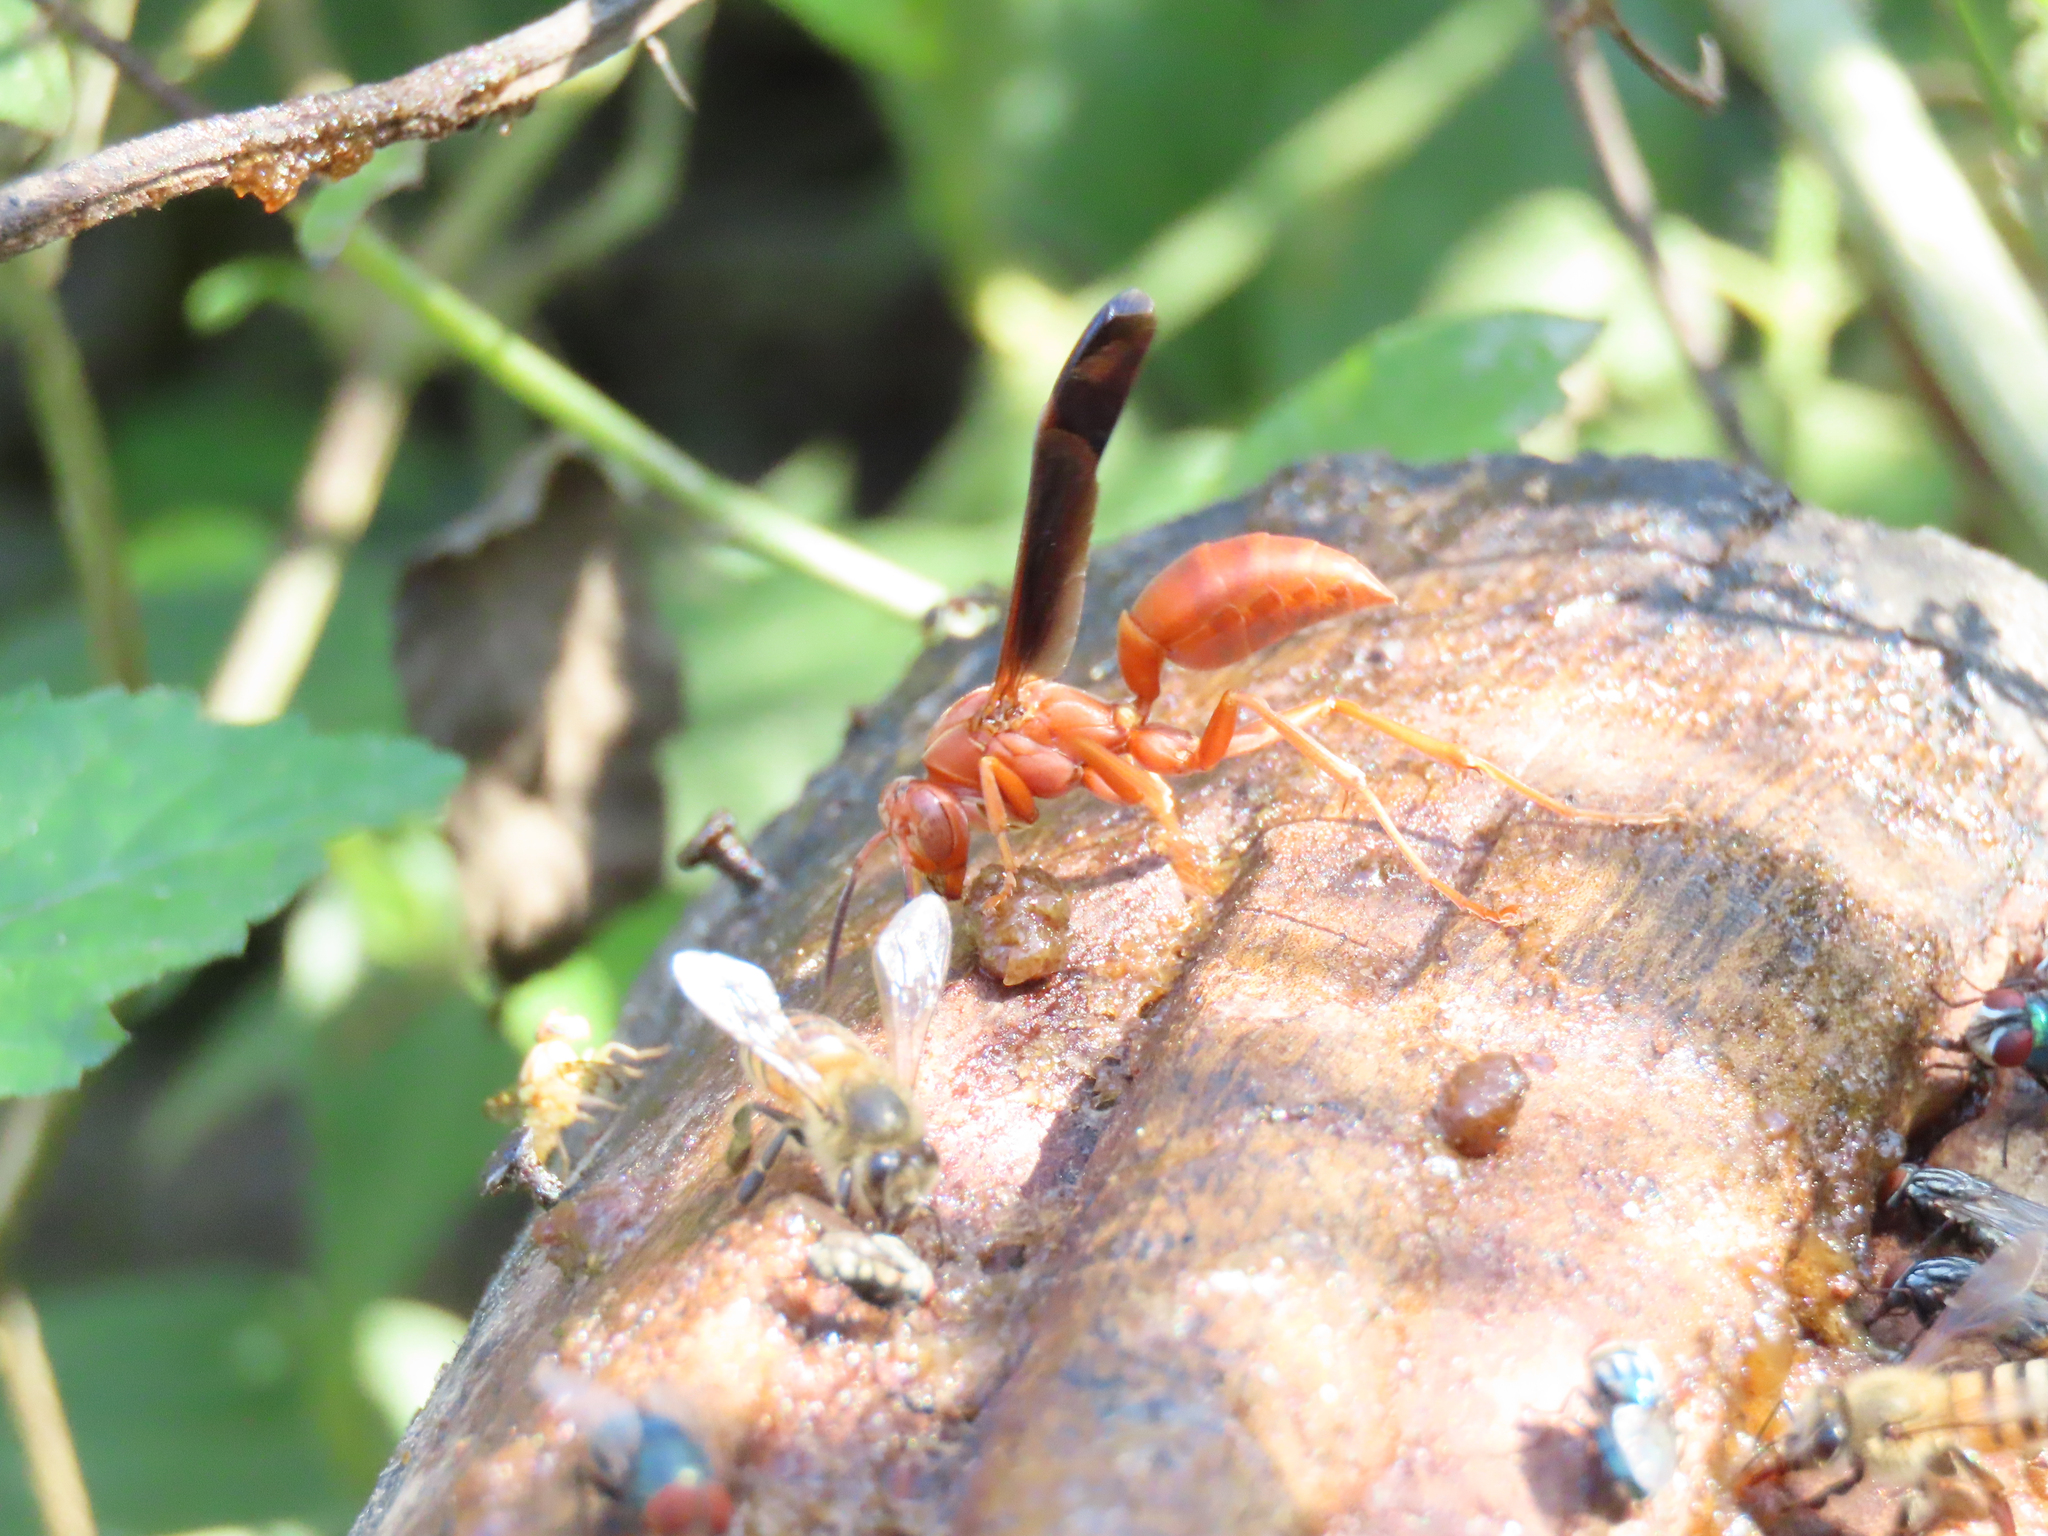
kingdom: Animalia
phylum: Arthropoda
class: Insecta
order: Hymenoptera
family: Vespidae
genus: Fuscopolistes
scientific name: Fuscopolistes
